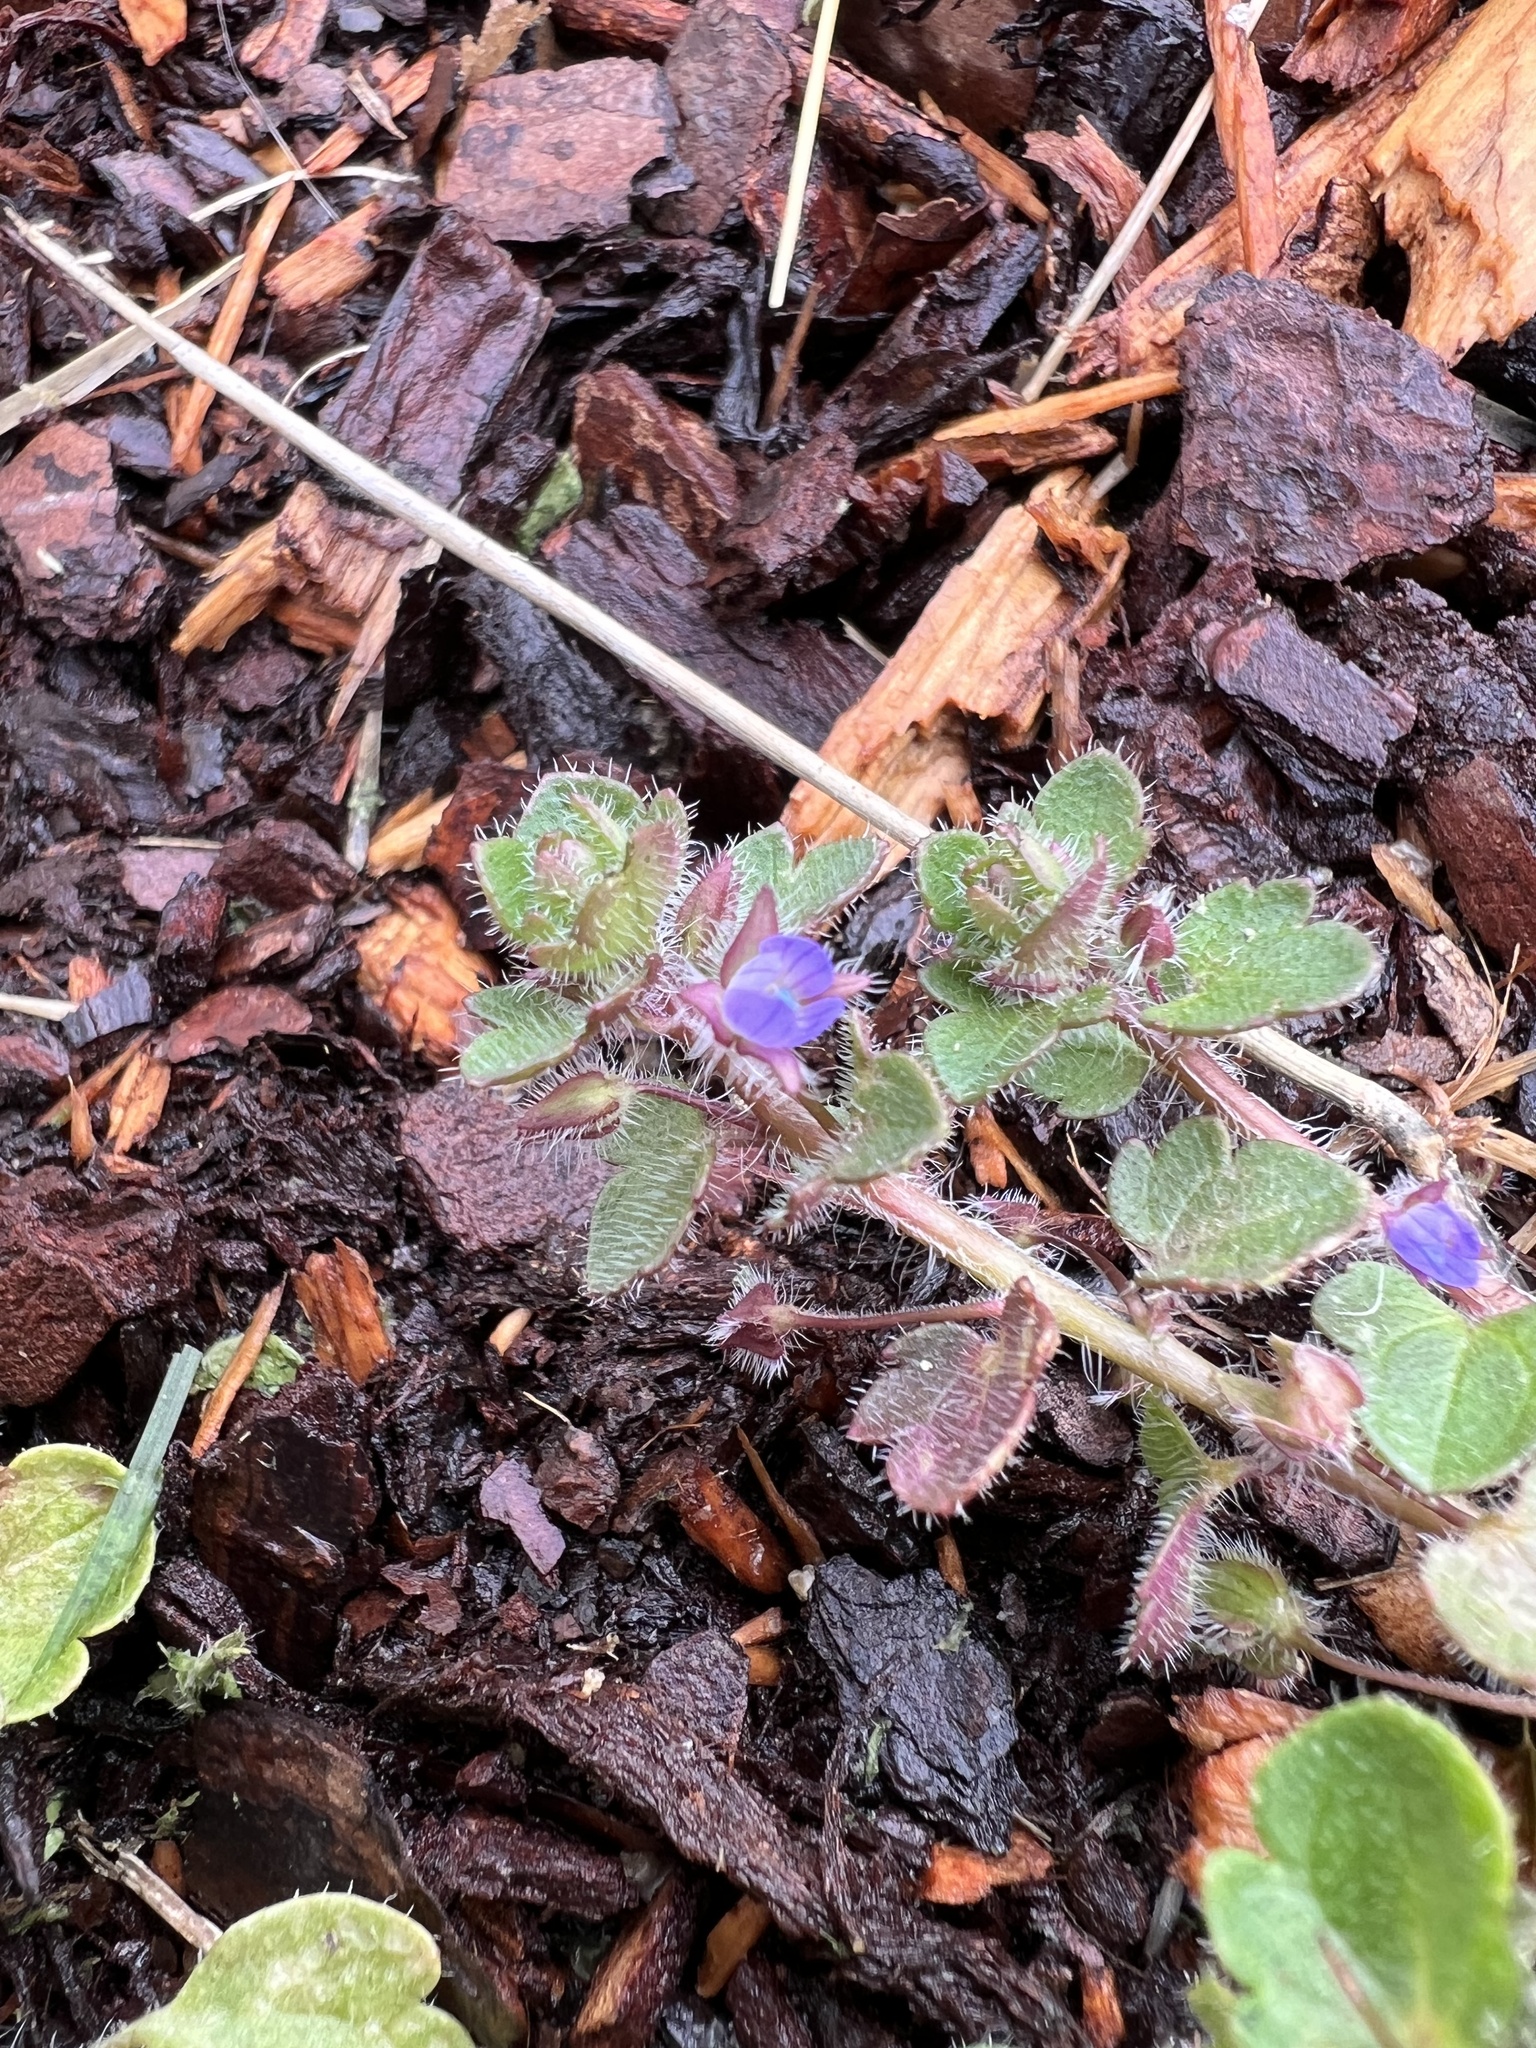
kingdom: Plantae
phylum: Tracheophyta
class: Magnoliopsida
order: Lamiales
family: Plantaginaceae
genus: Veronica
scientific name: Veronica hederifolia
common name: Ivy-leaved speedwell
